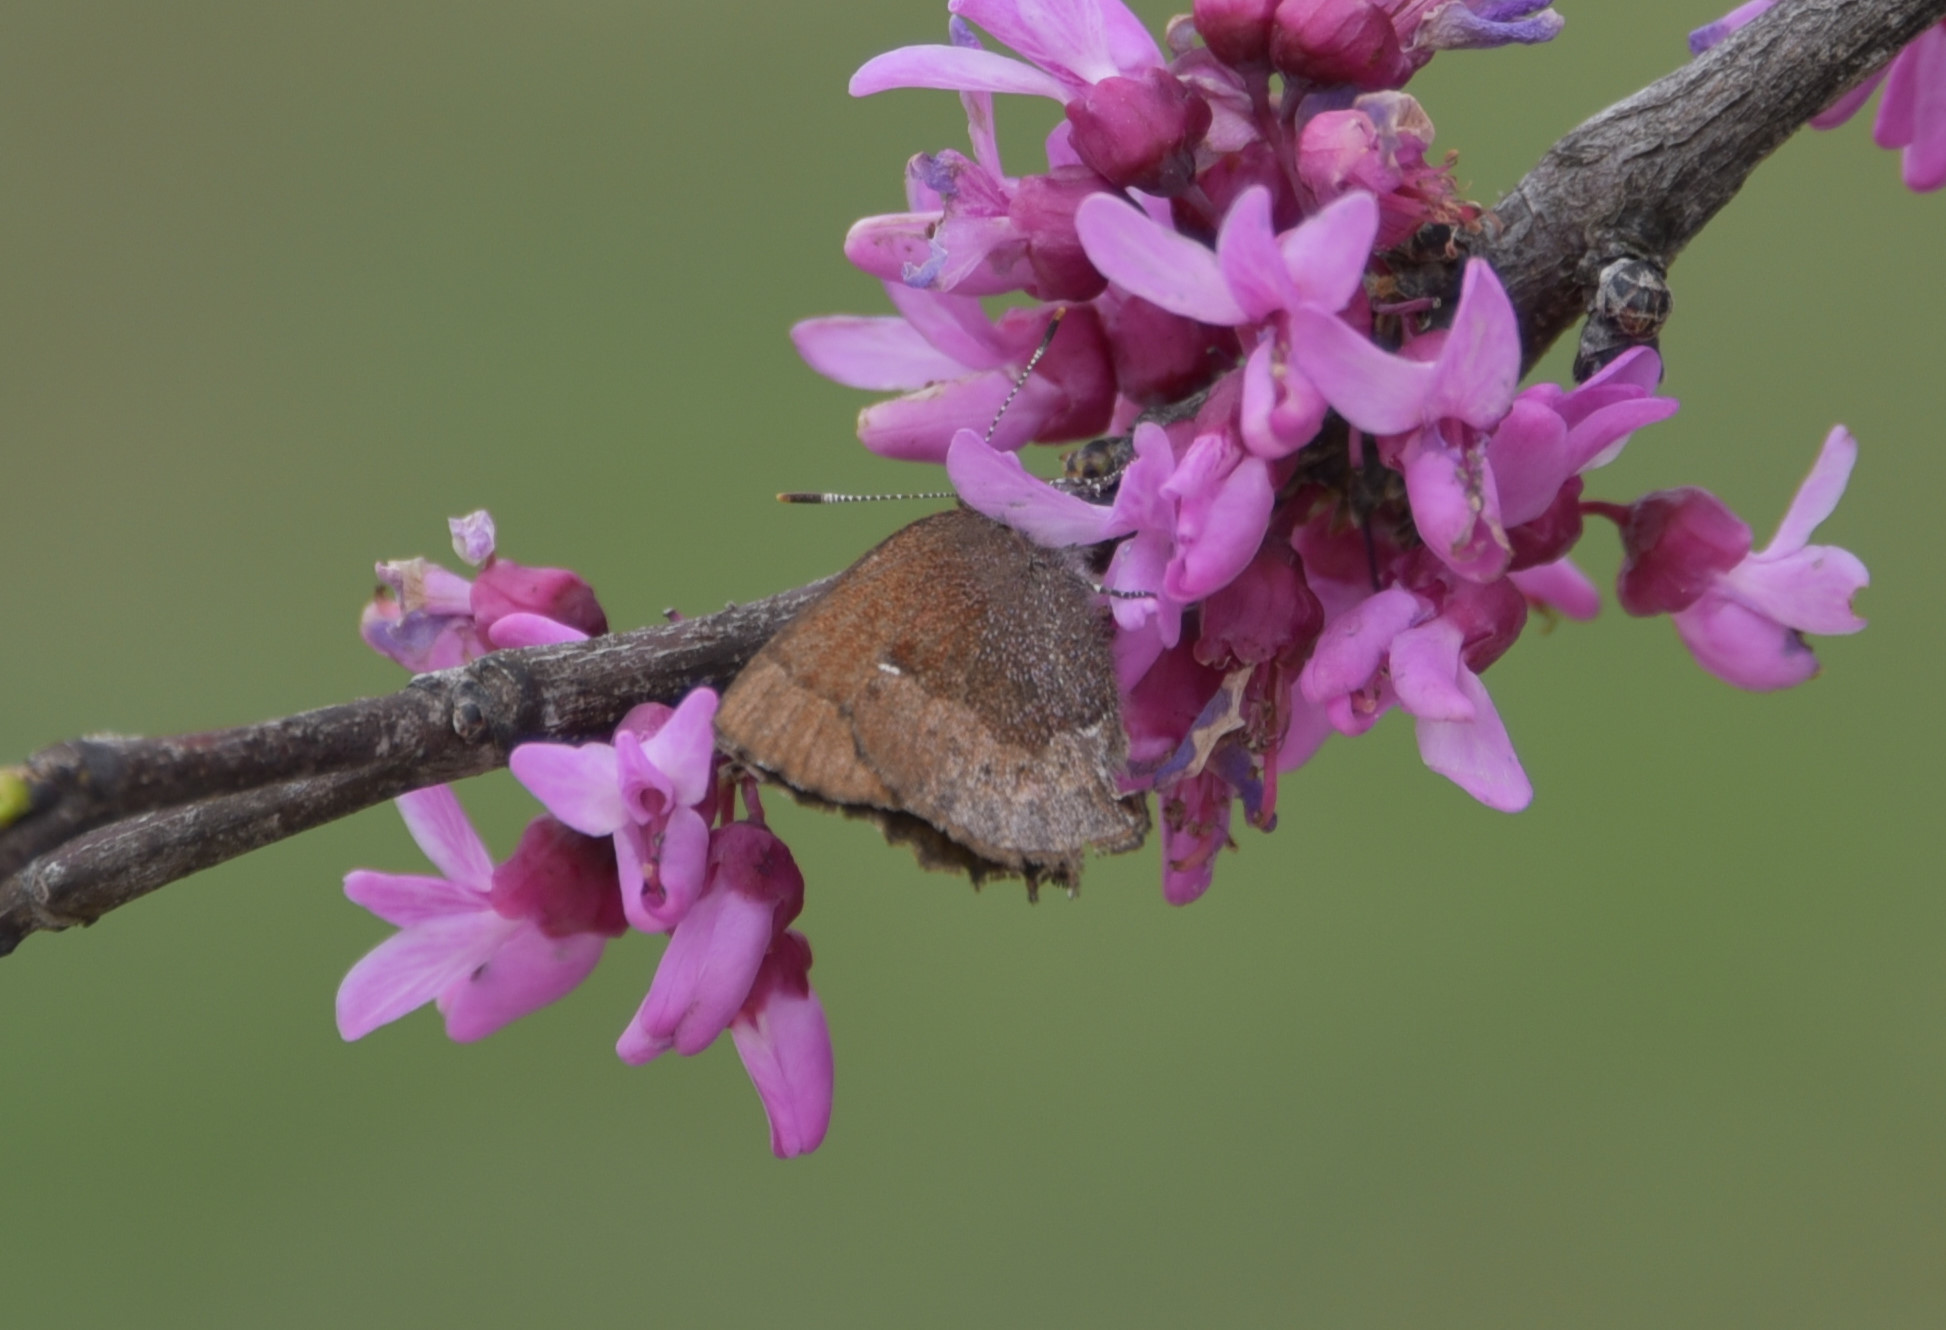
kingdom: Animalia
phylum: Arthropoda
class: Insecta
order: Lepidoptera
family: Lycaenidae
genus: Incisalia
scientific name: Incisalia henrici
